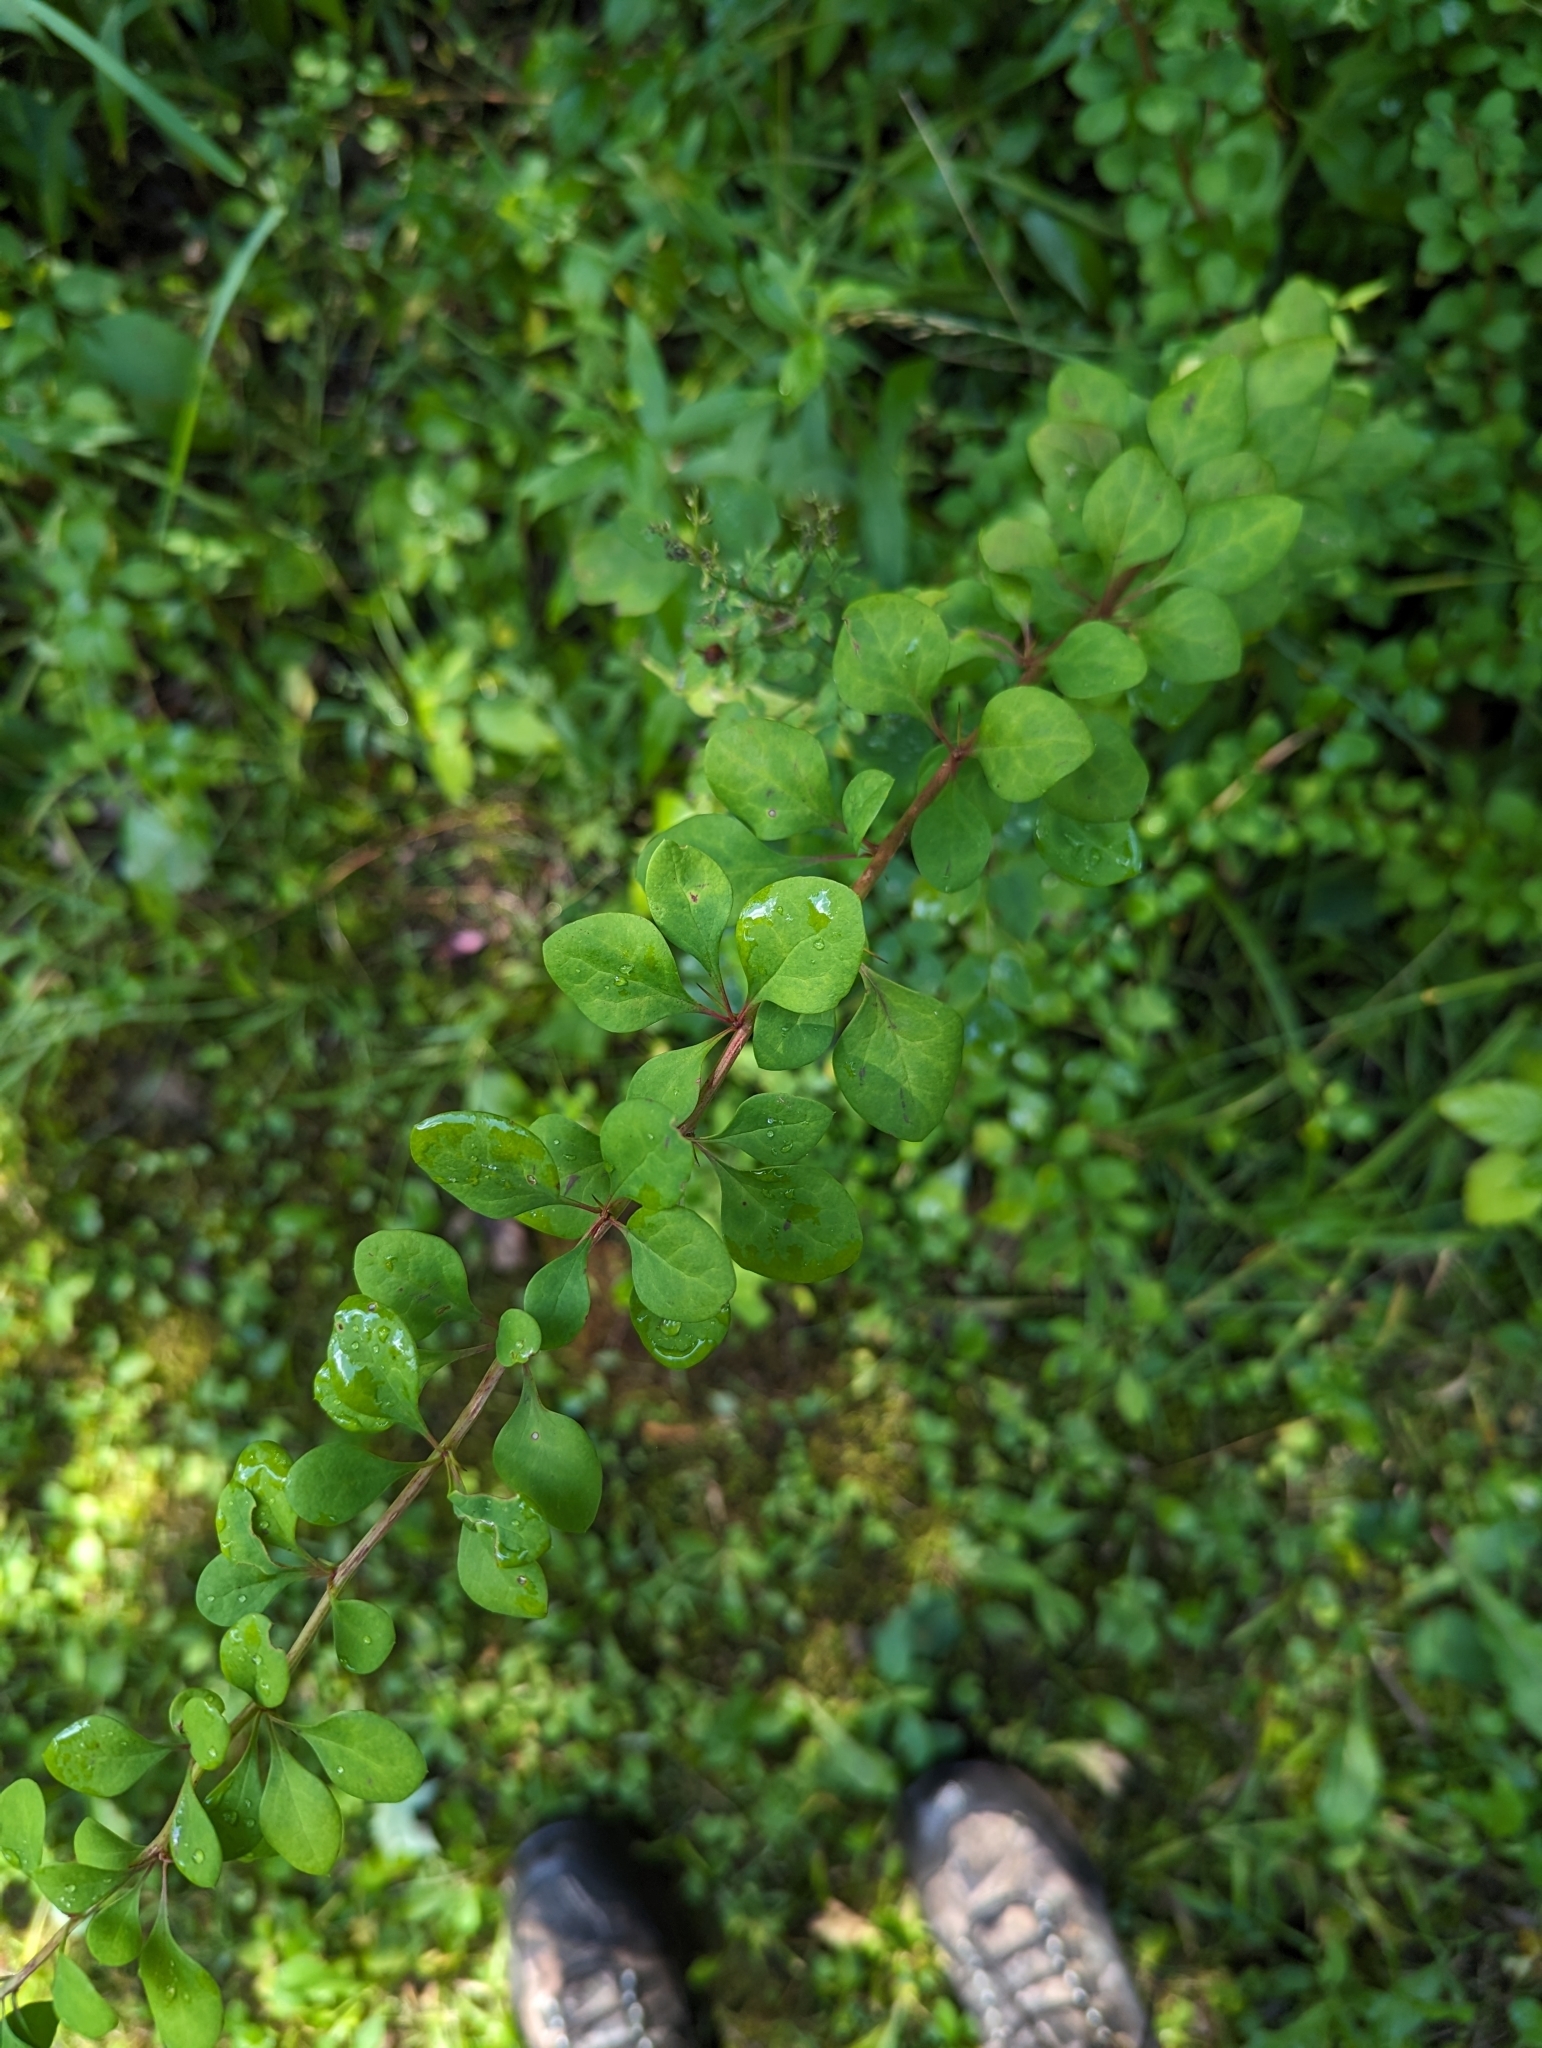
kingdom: Plantae
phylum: Tracheophyta
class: Magnoliopsida
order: Ranunculales
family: Berberidaceae
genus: Berberis
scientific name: Berberis thunbergii
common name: Japanese barberry
